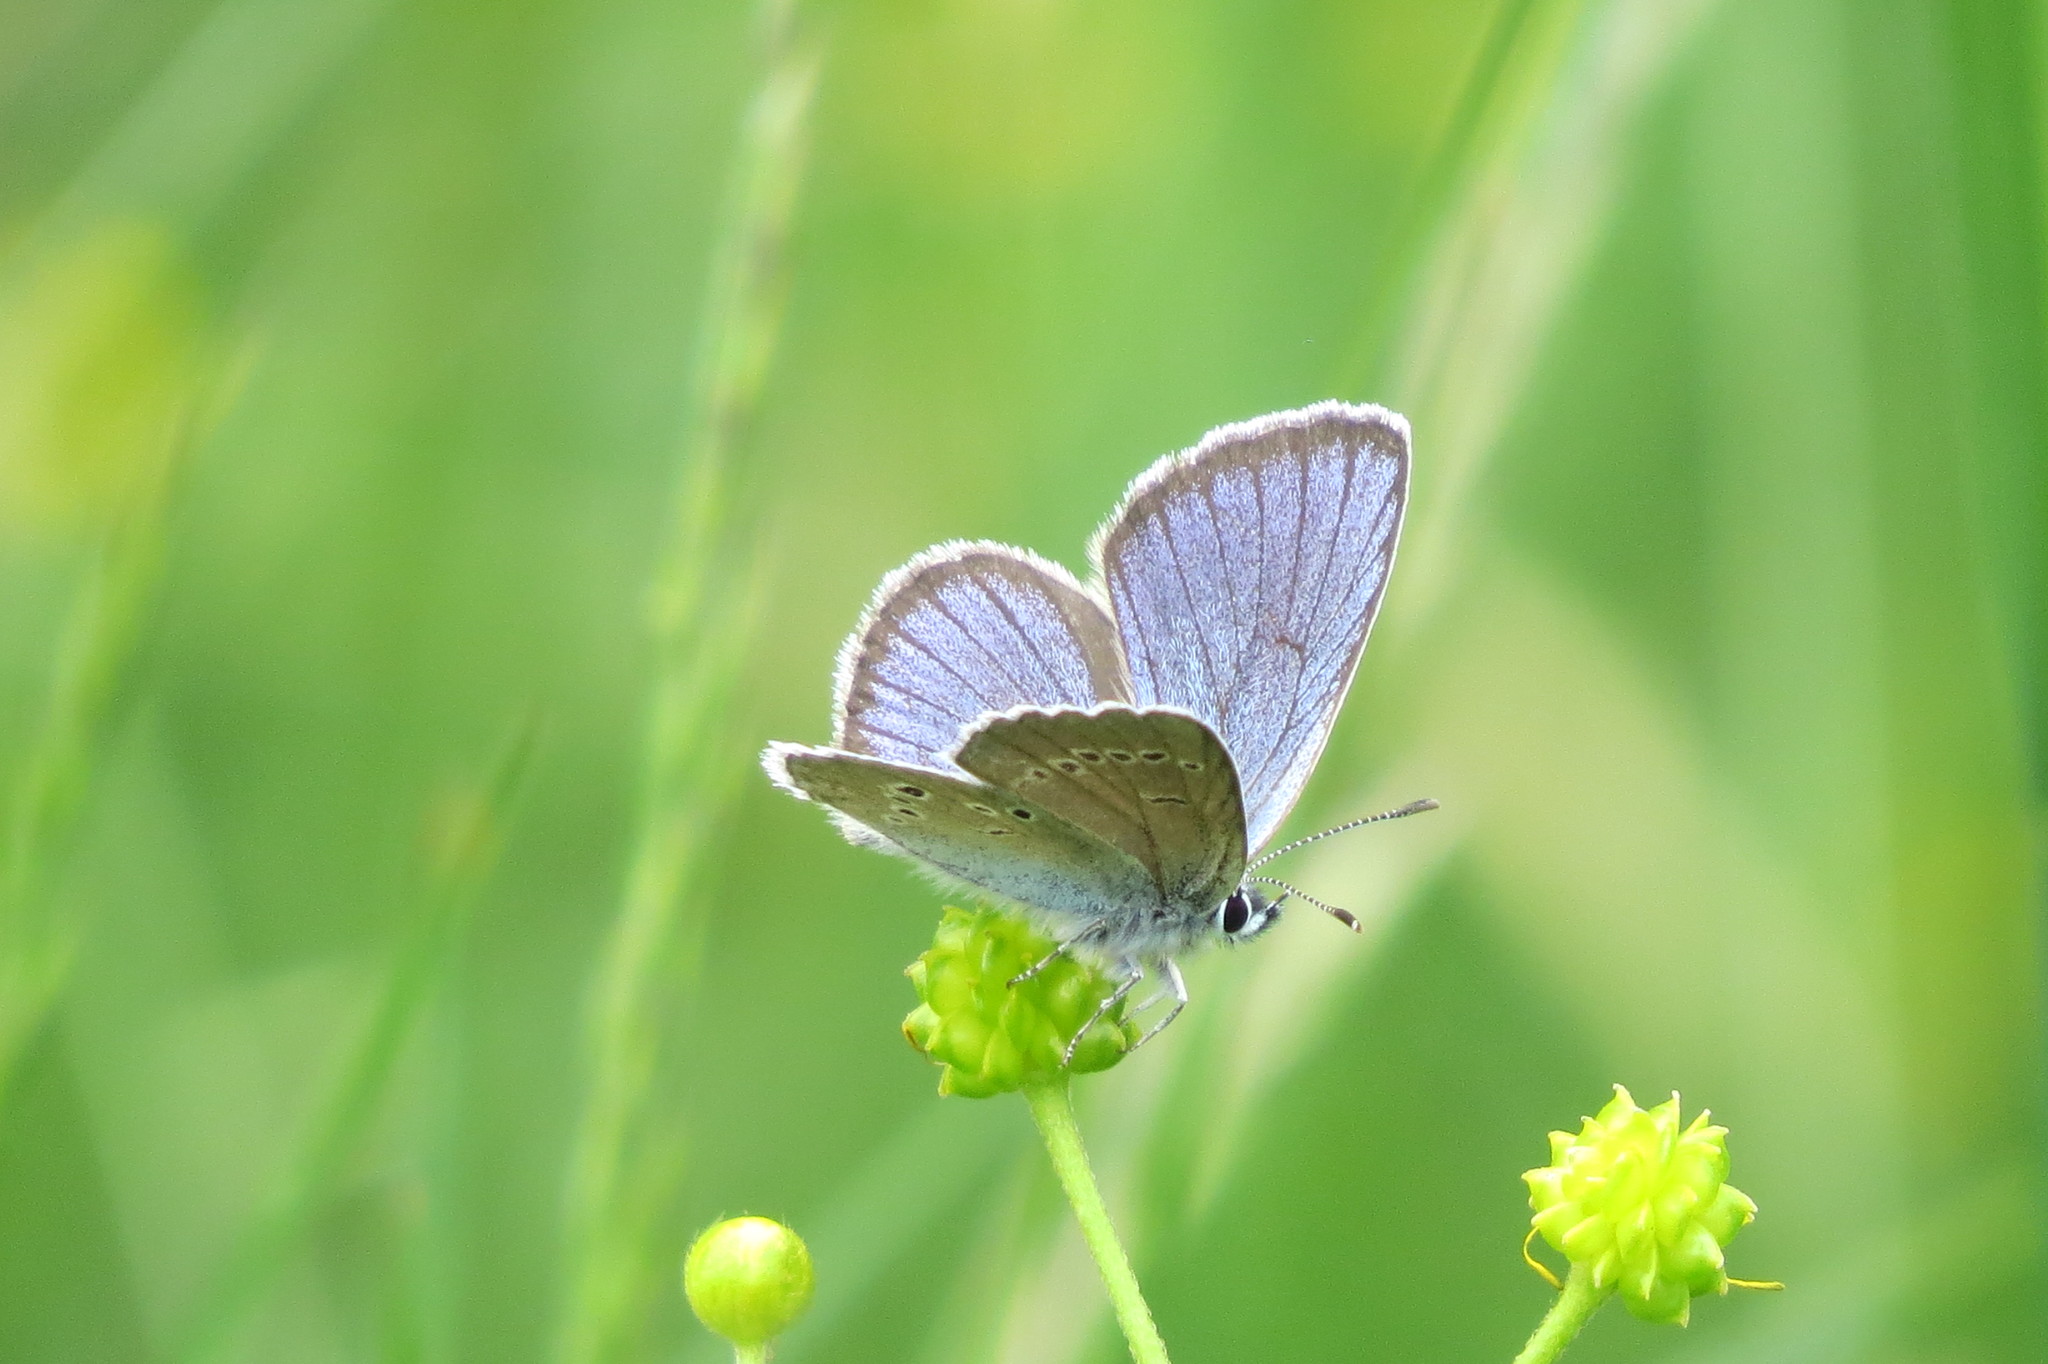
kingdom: Animalia
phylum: Arthropoda
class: Insecta
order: Lepidoptera
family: Lycaenidae
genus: Cyaniris
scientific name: Cyaniris semiargus
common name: Mazarine blue
